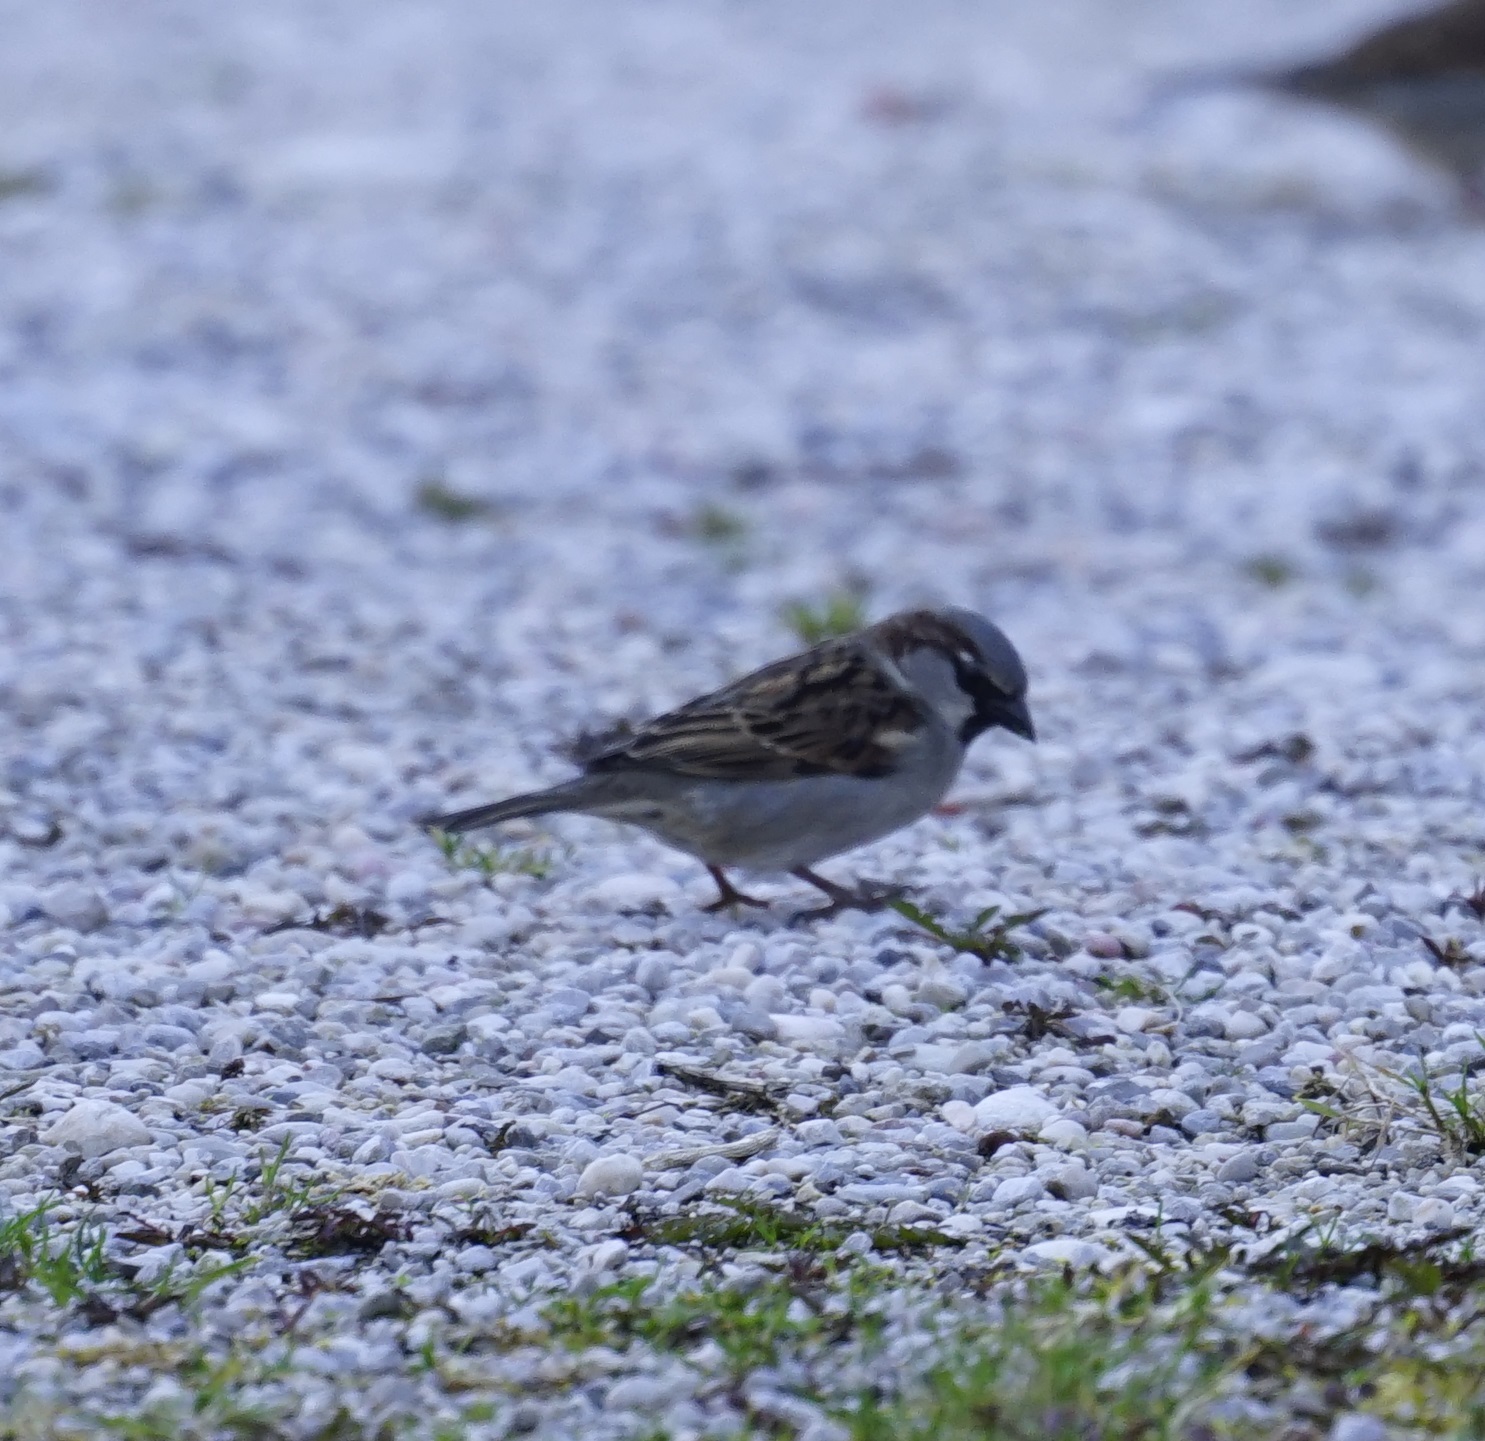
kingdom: Animalia
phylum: Chordata
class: Aves
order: Passeriformes
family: Passeridae
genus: Passer
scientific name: Passer domesticus
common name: House sparrow
